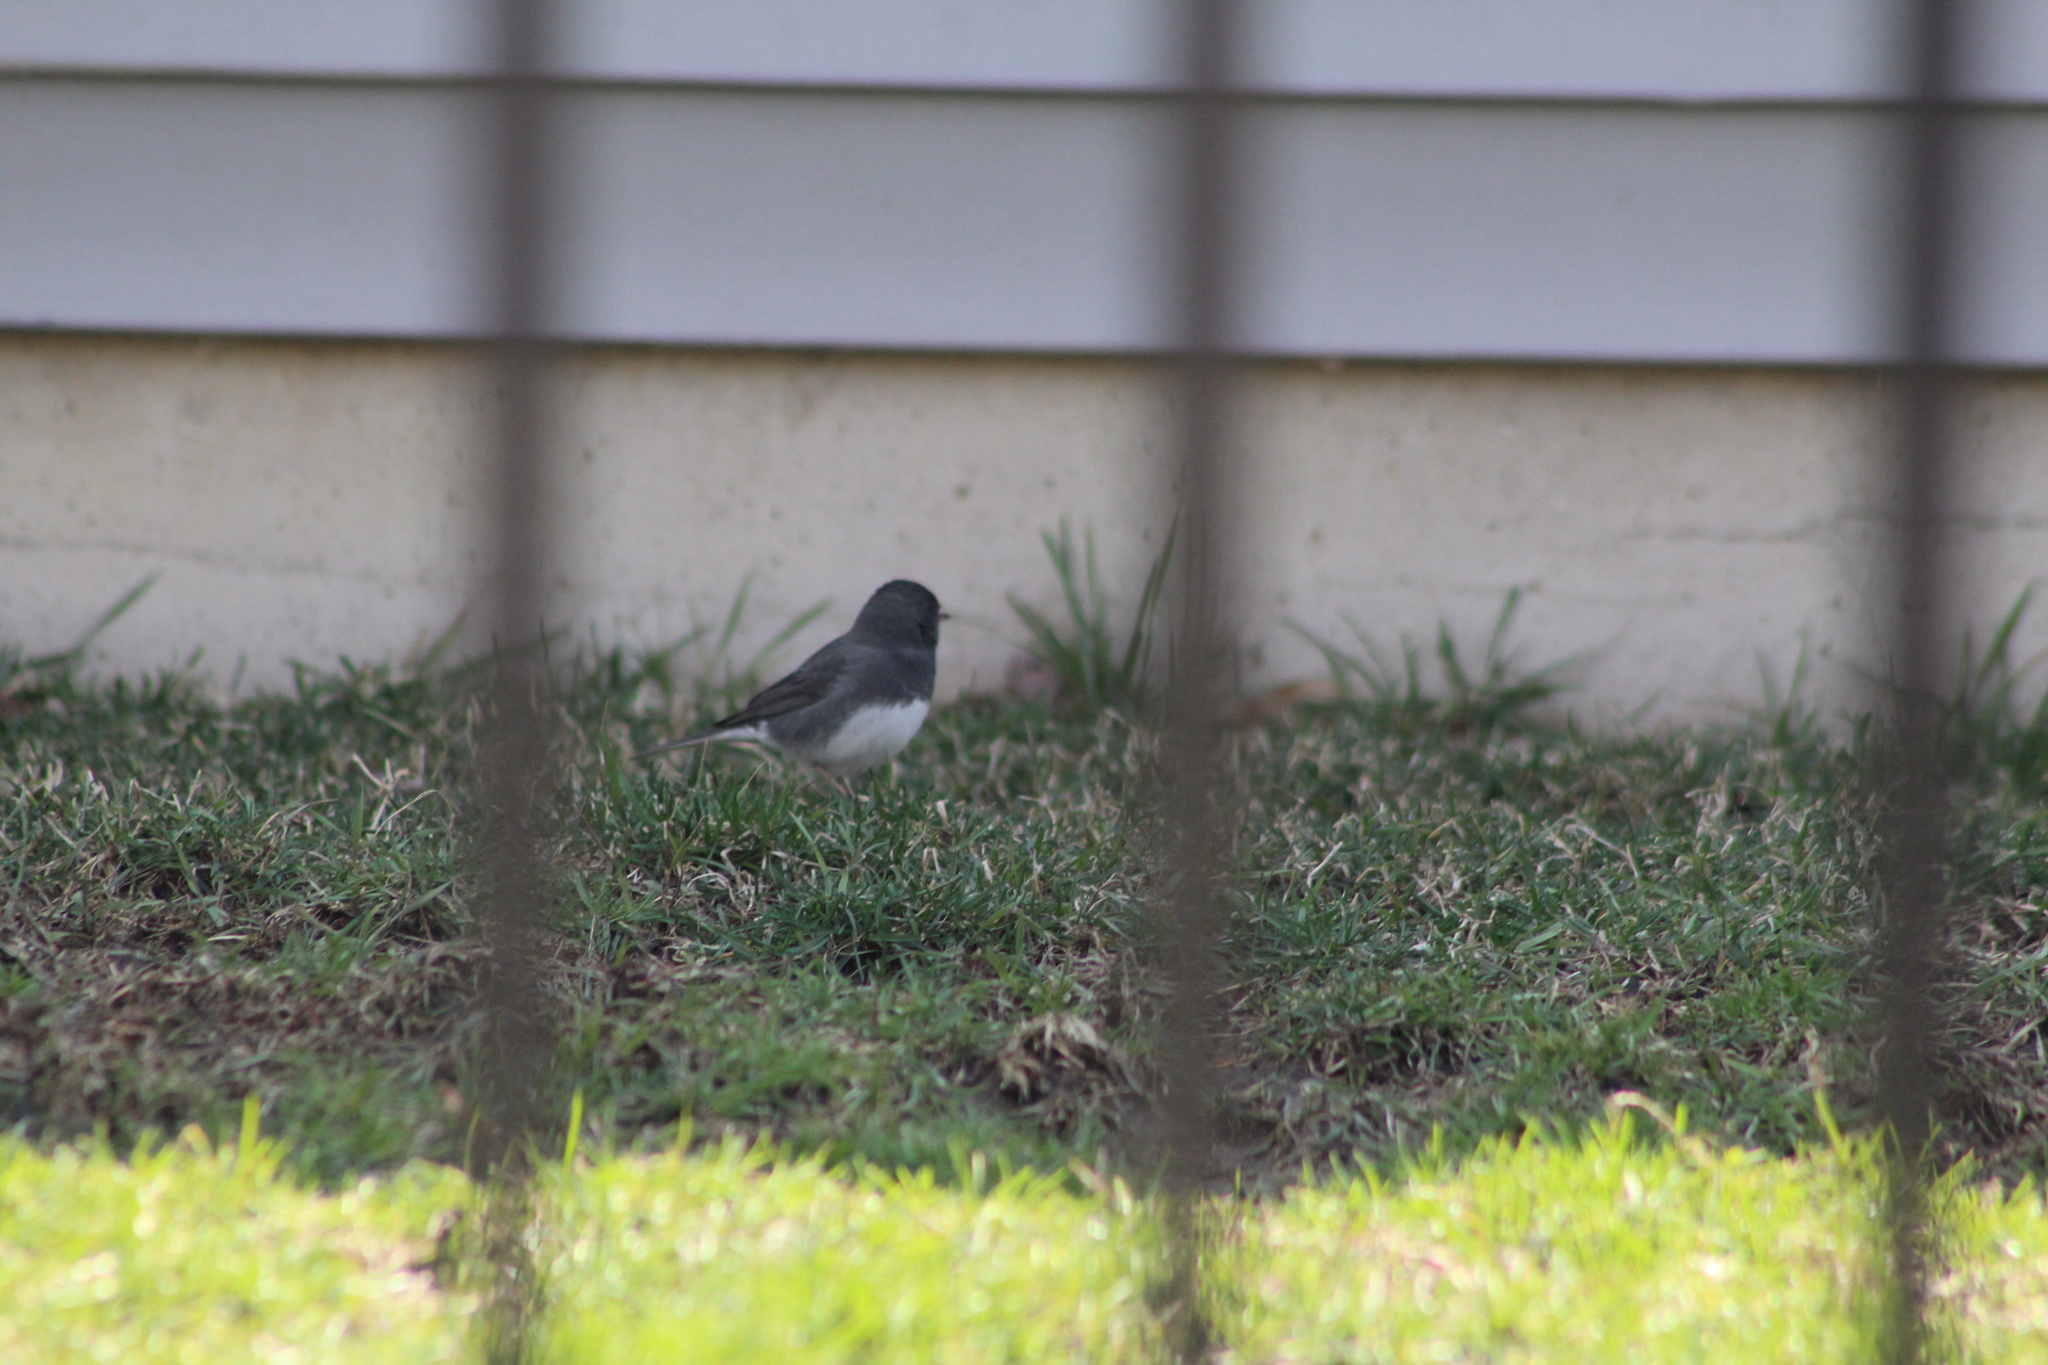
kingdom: Animalia
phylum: Chordata
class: Aves
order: Passeriformes
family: Passerellidae
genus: Junco
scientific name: Junco hyemalis
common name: Dark-eyed junco
